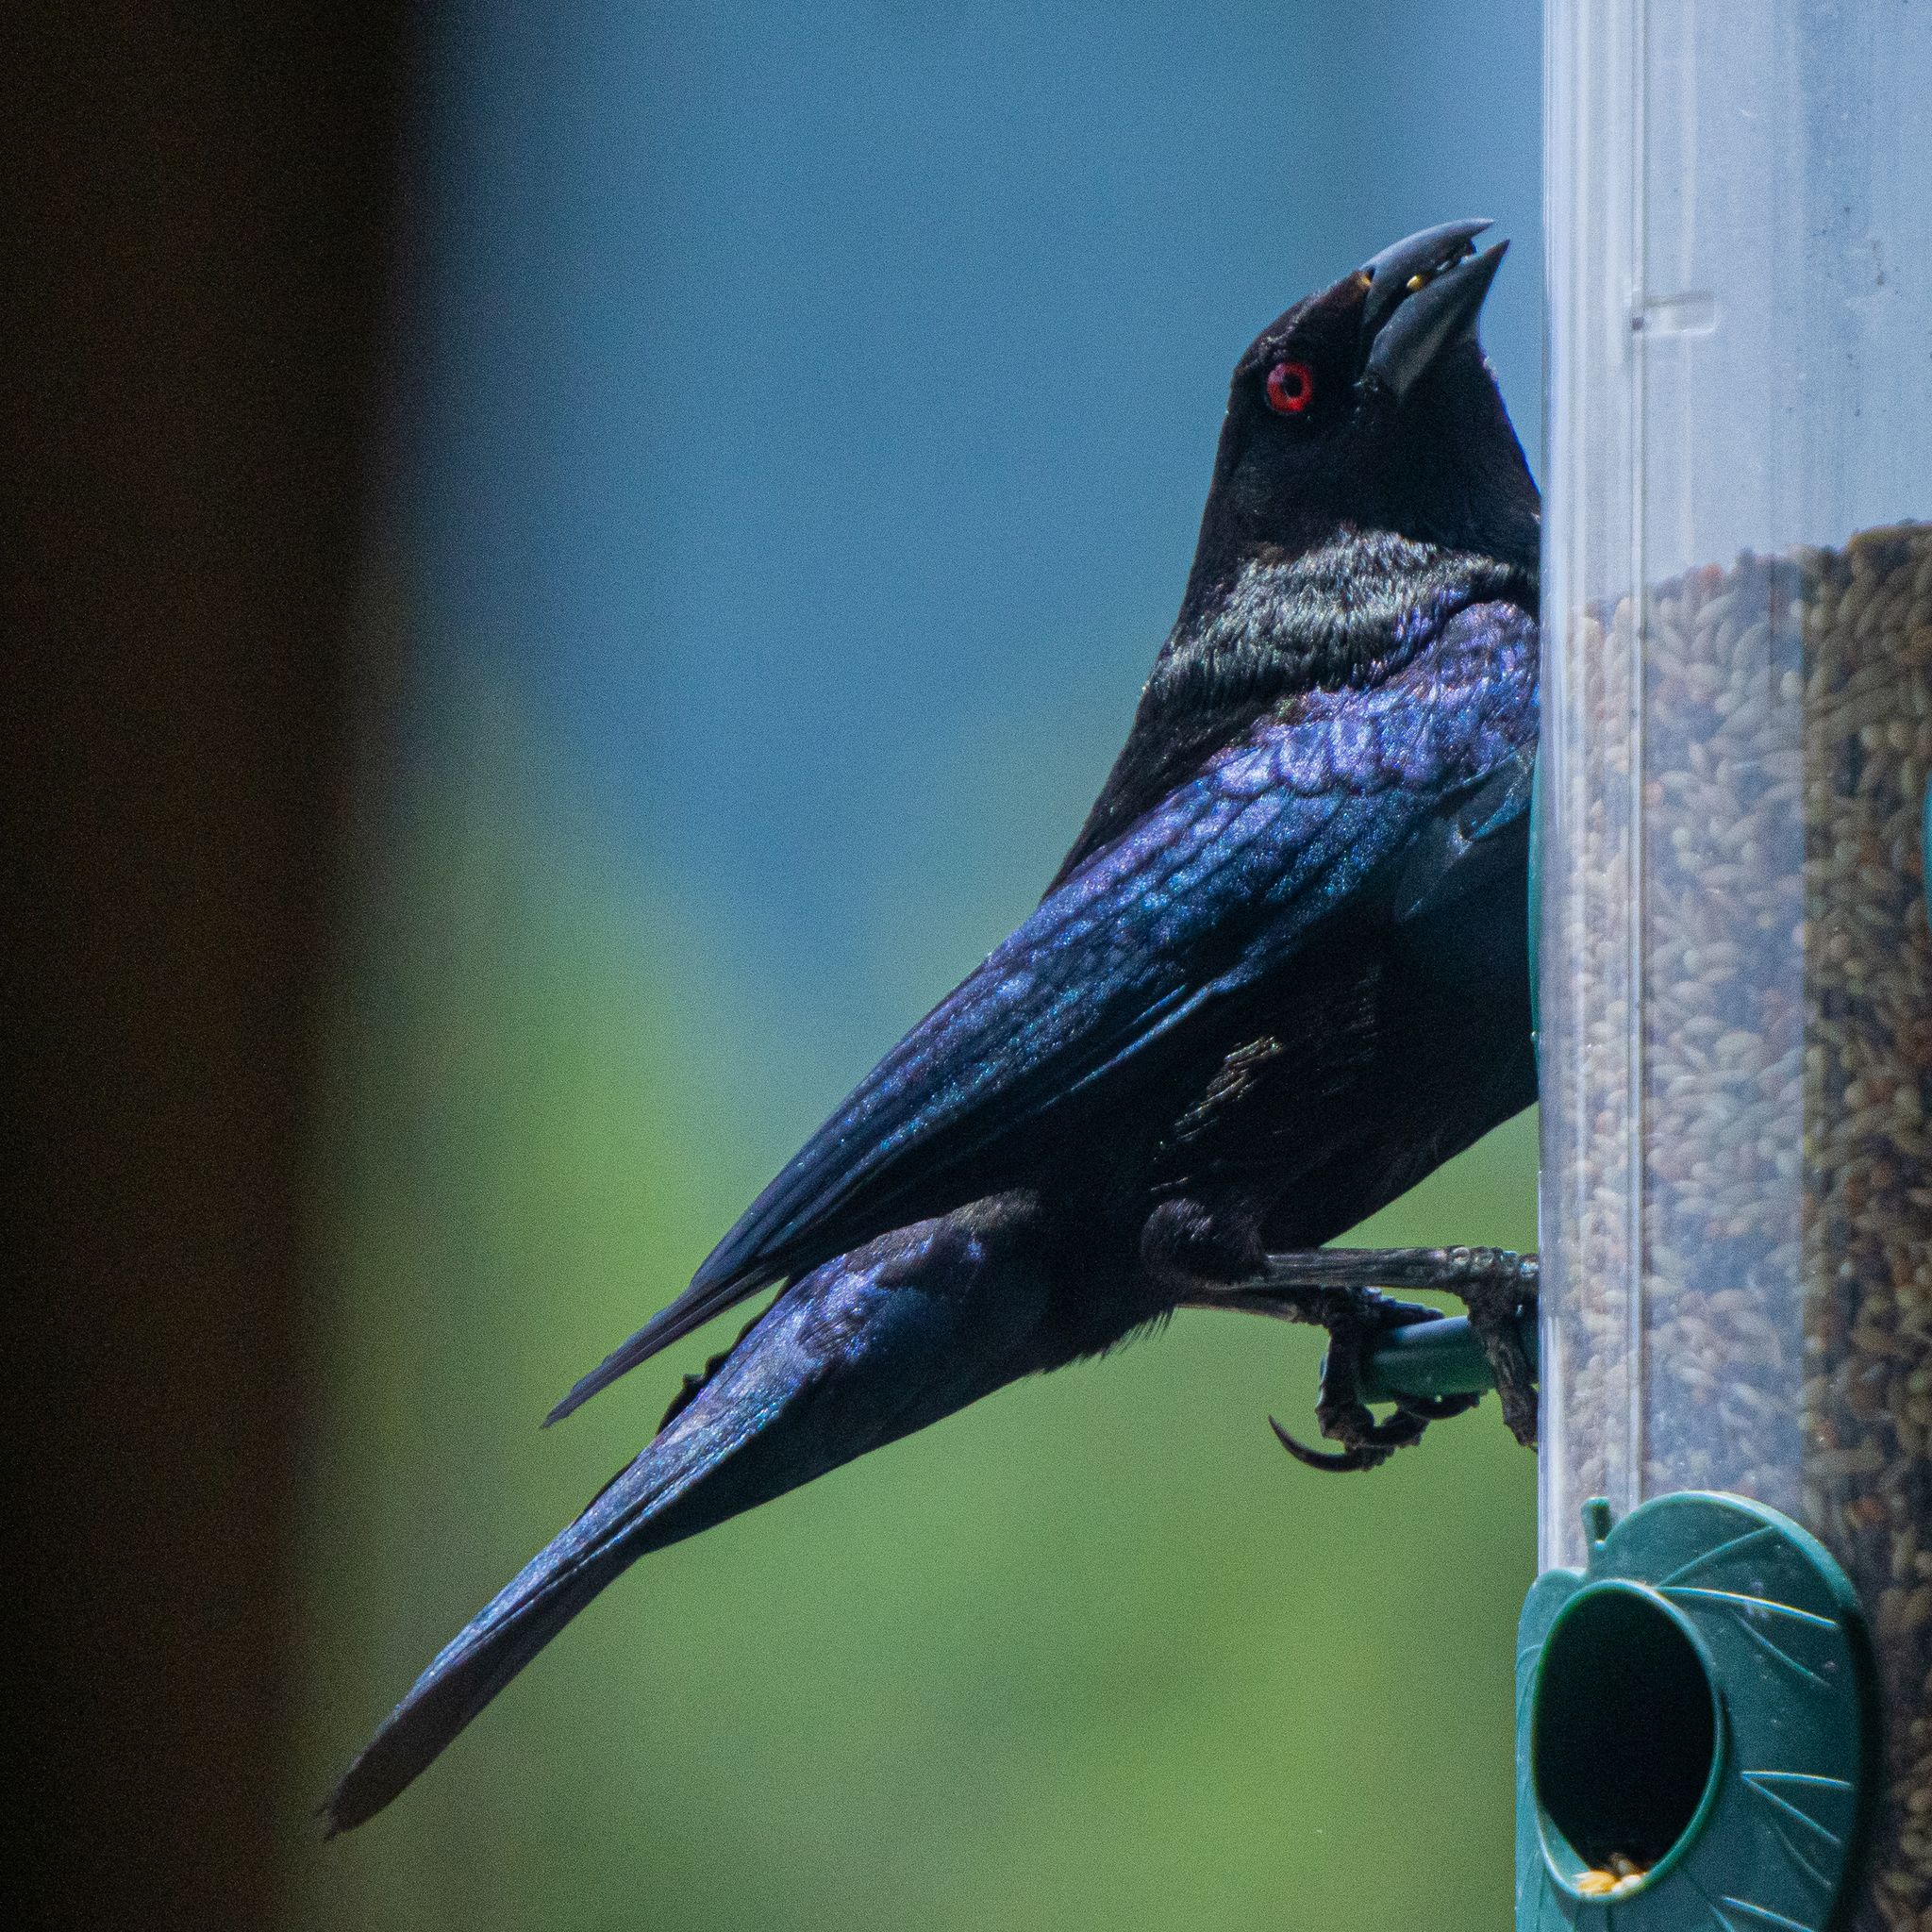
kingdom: Animalia
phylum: Chordata
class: Aves
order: Passeriformes
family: Icteridae
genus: Molothrus
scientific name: Molothrus aeneus
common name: Bronzed cowbird
